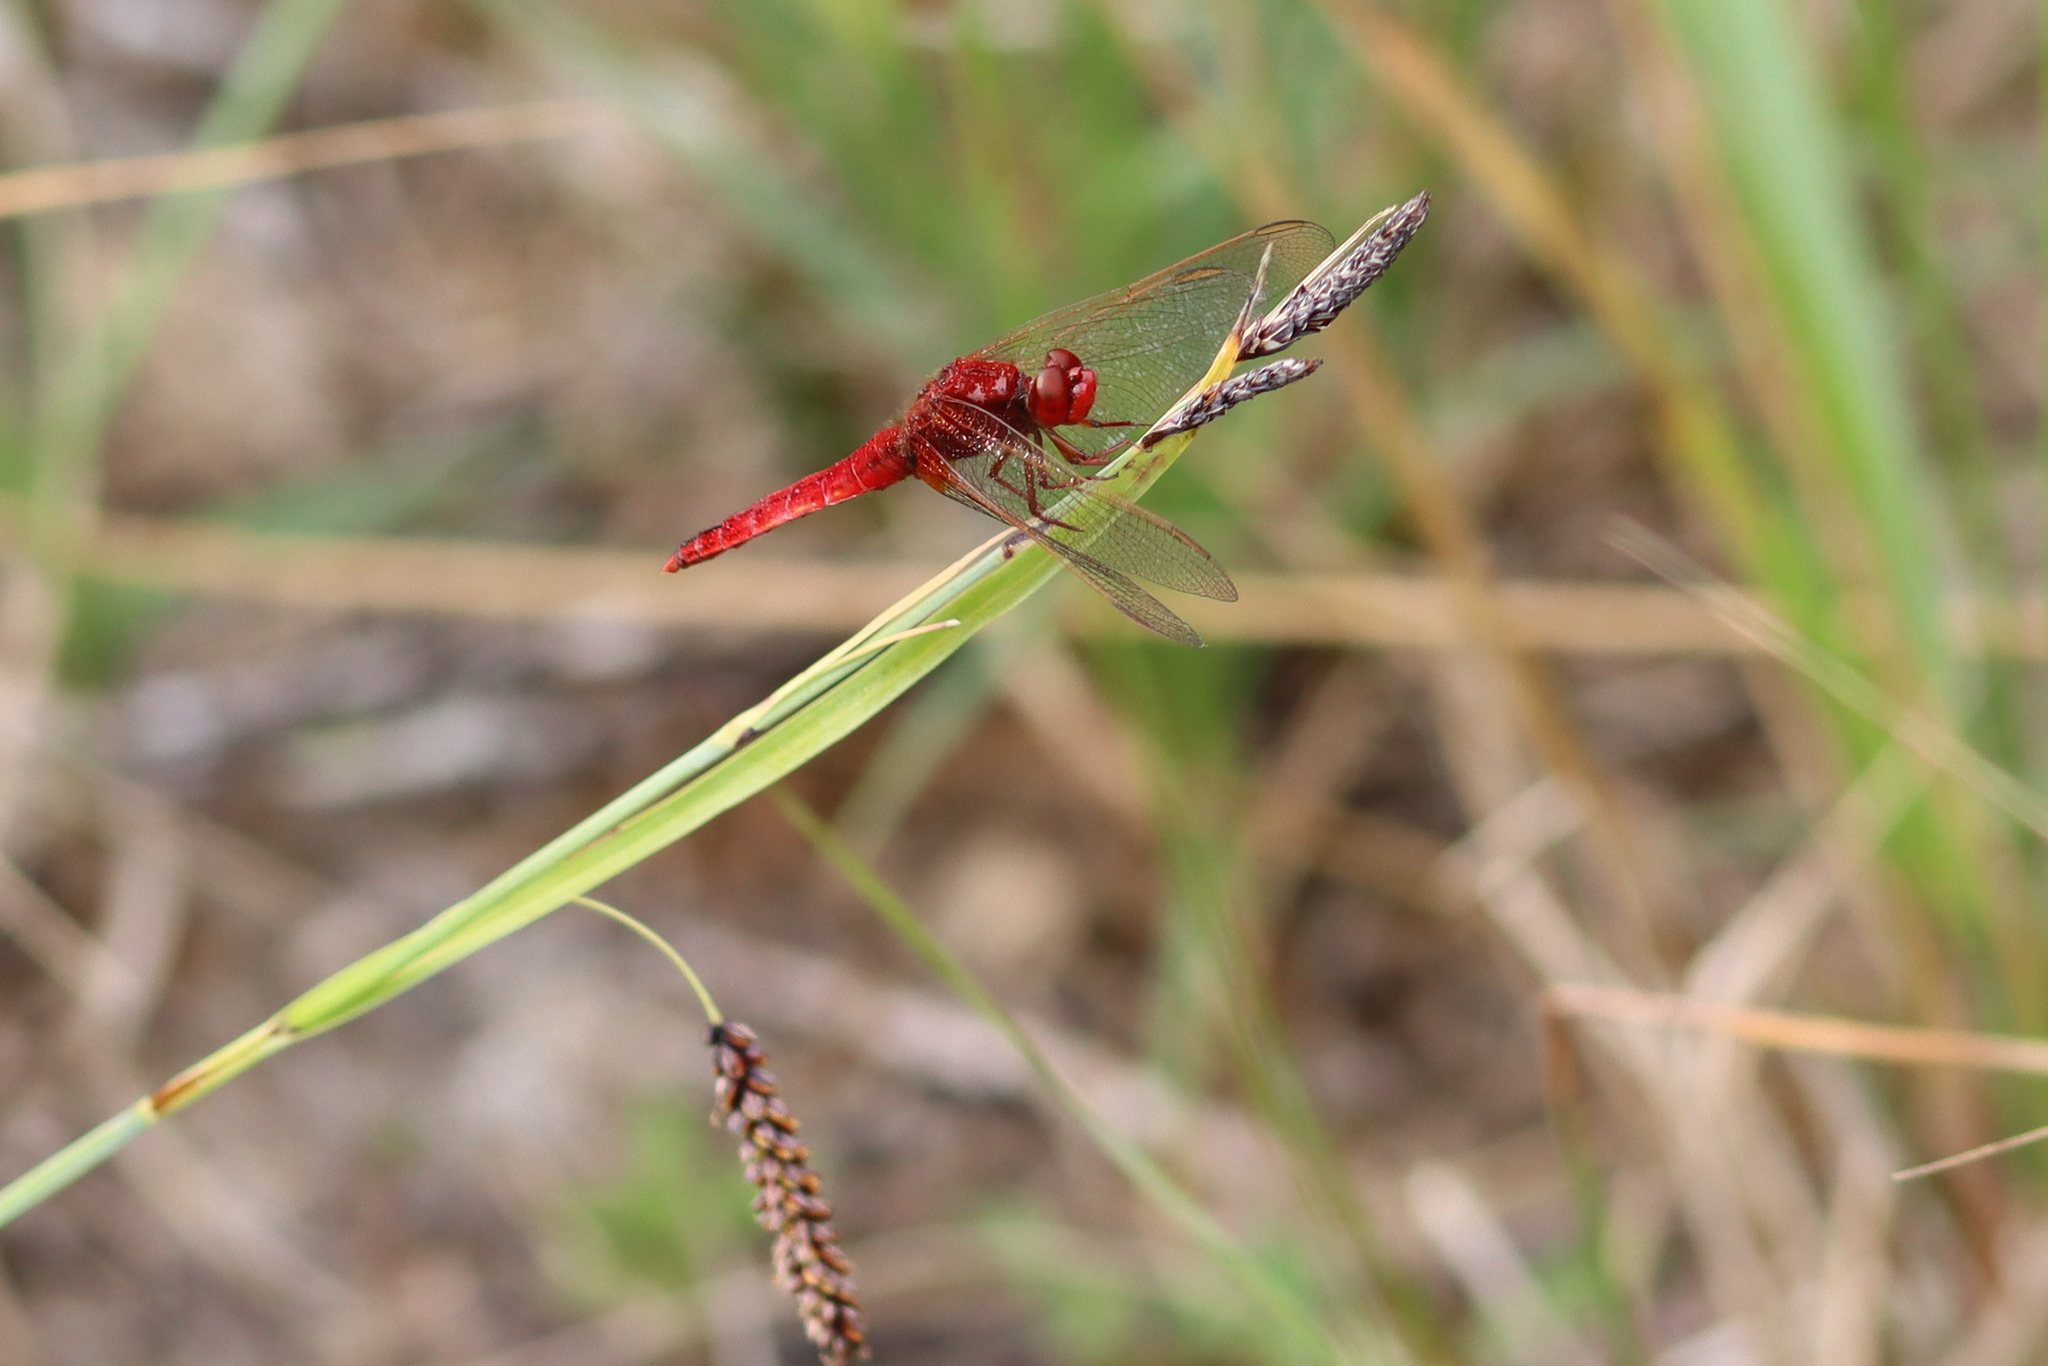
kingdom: Animalia
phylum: Arthropoda
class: Insecta
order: Odonata
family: Libellulidae
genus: Crocothemis
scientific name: Crocothemis erythraea
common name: Scarlet dragonfly
